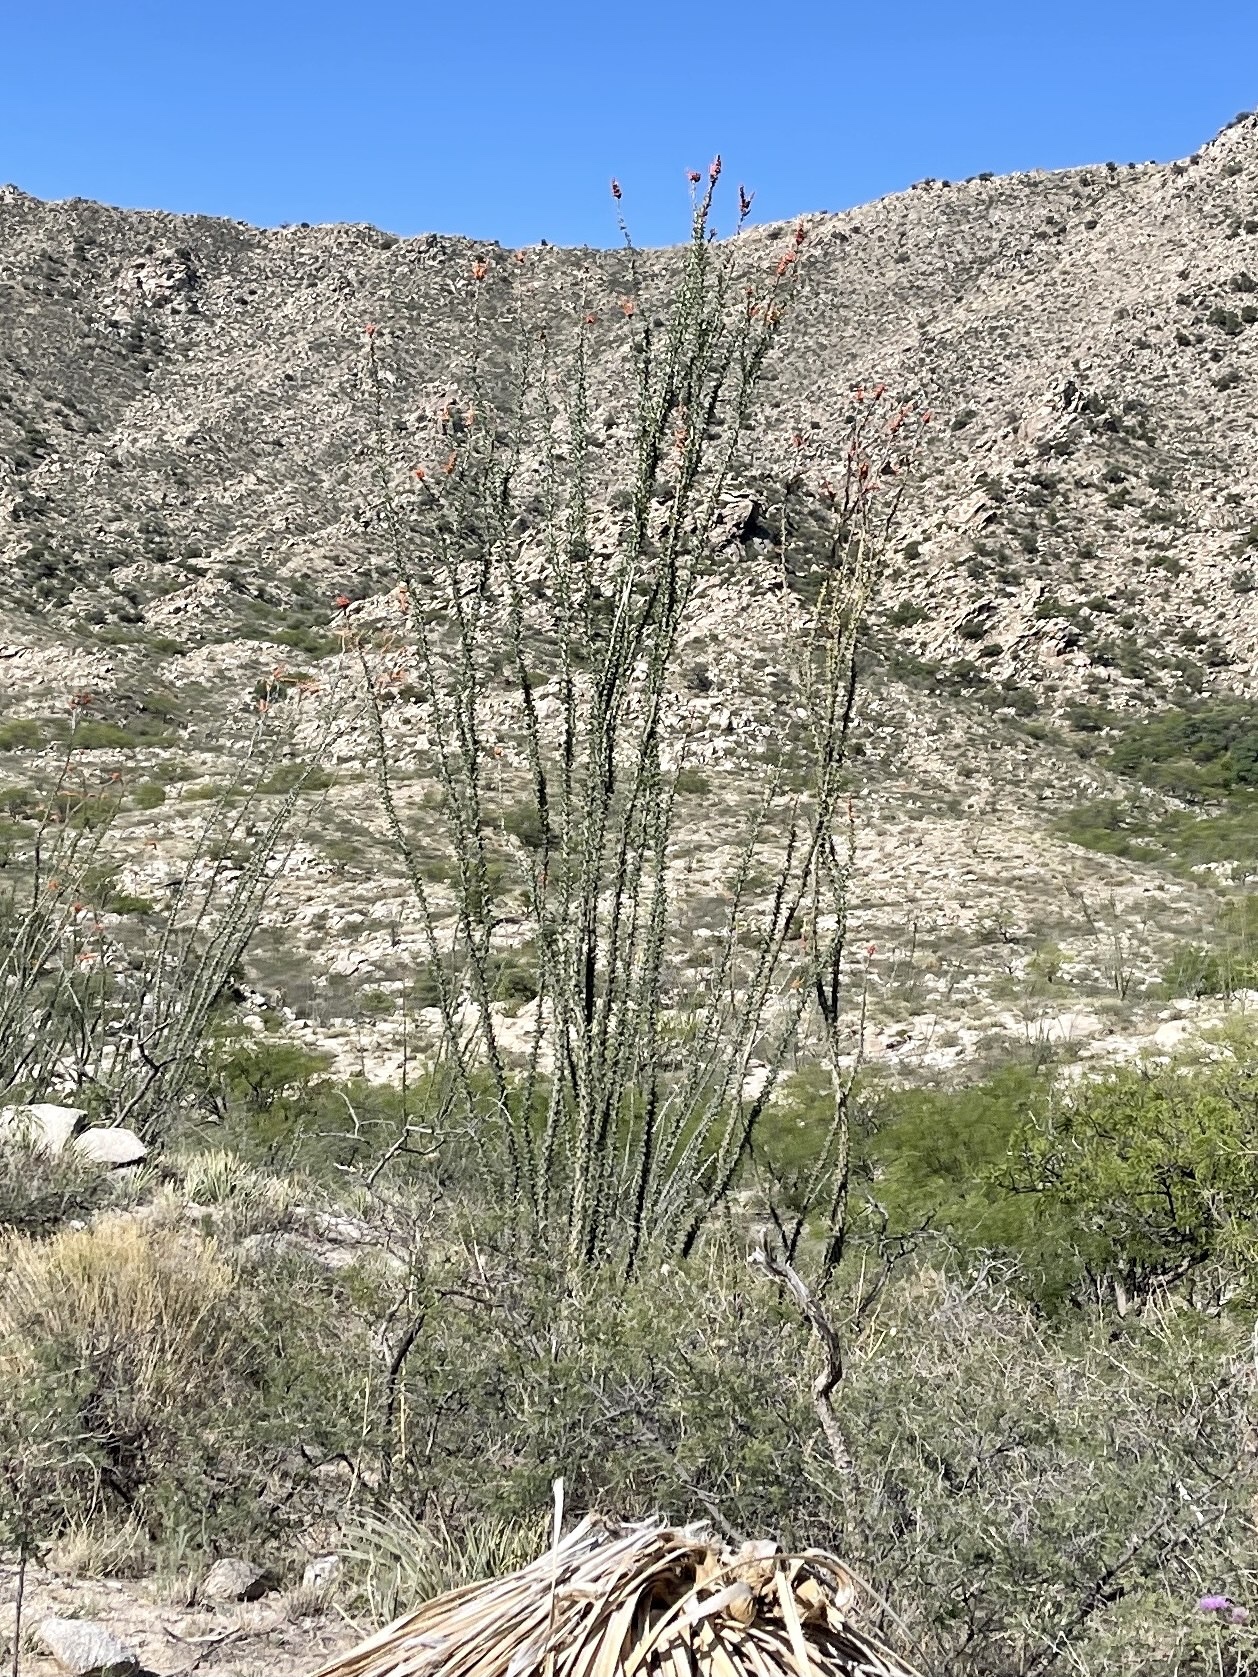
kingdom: Plantae
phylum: Tracheophyta
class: Magnoliopsida
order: Ericales
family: Fouquieriaceae
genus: Fouquieria
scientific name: Fouquieria splendens
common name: Vine-cactus
